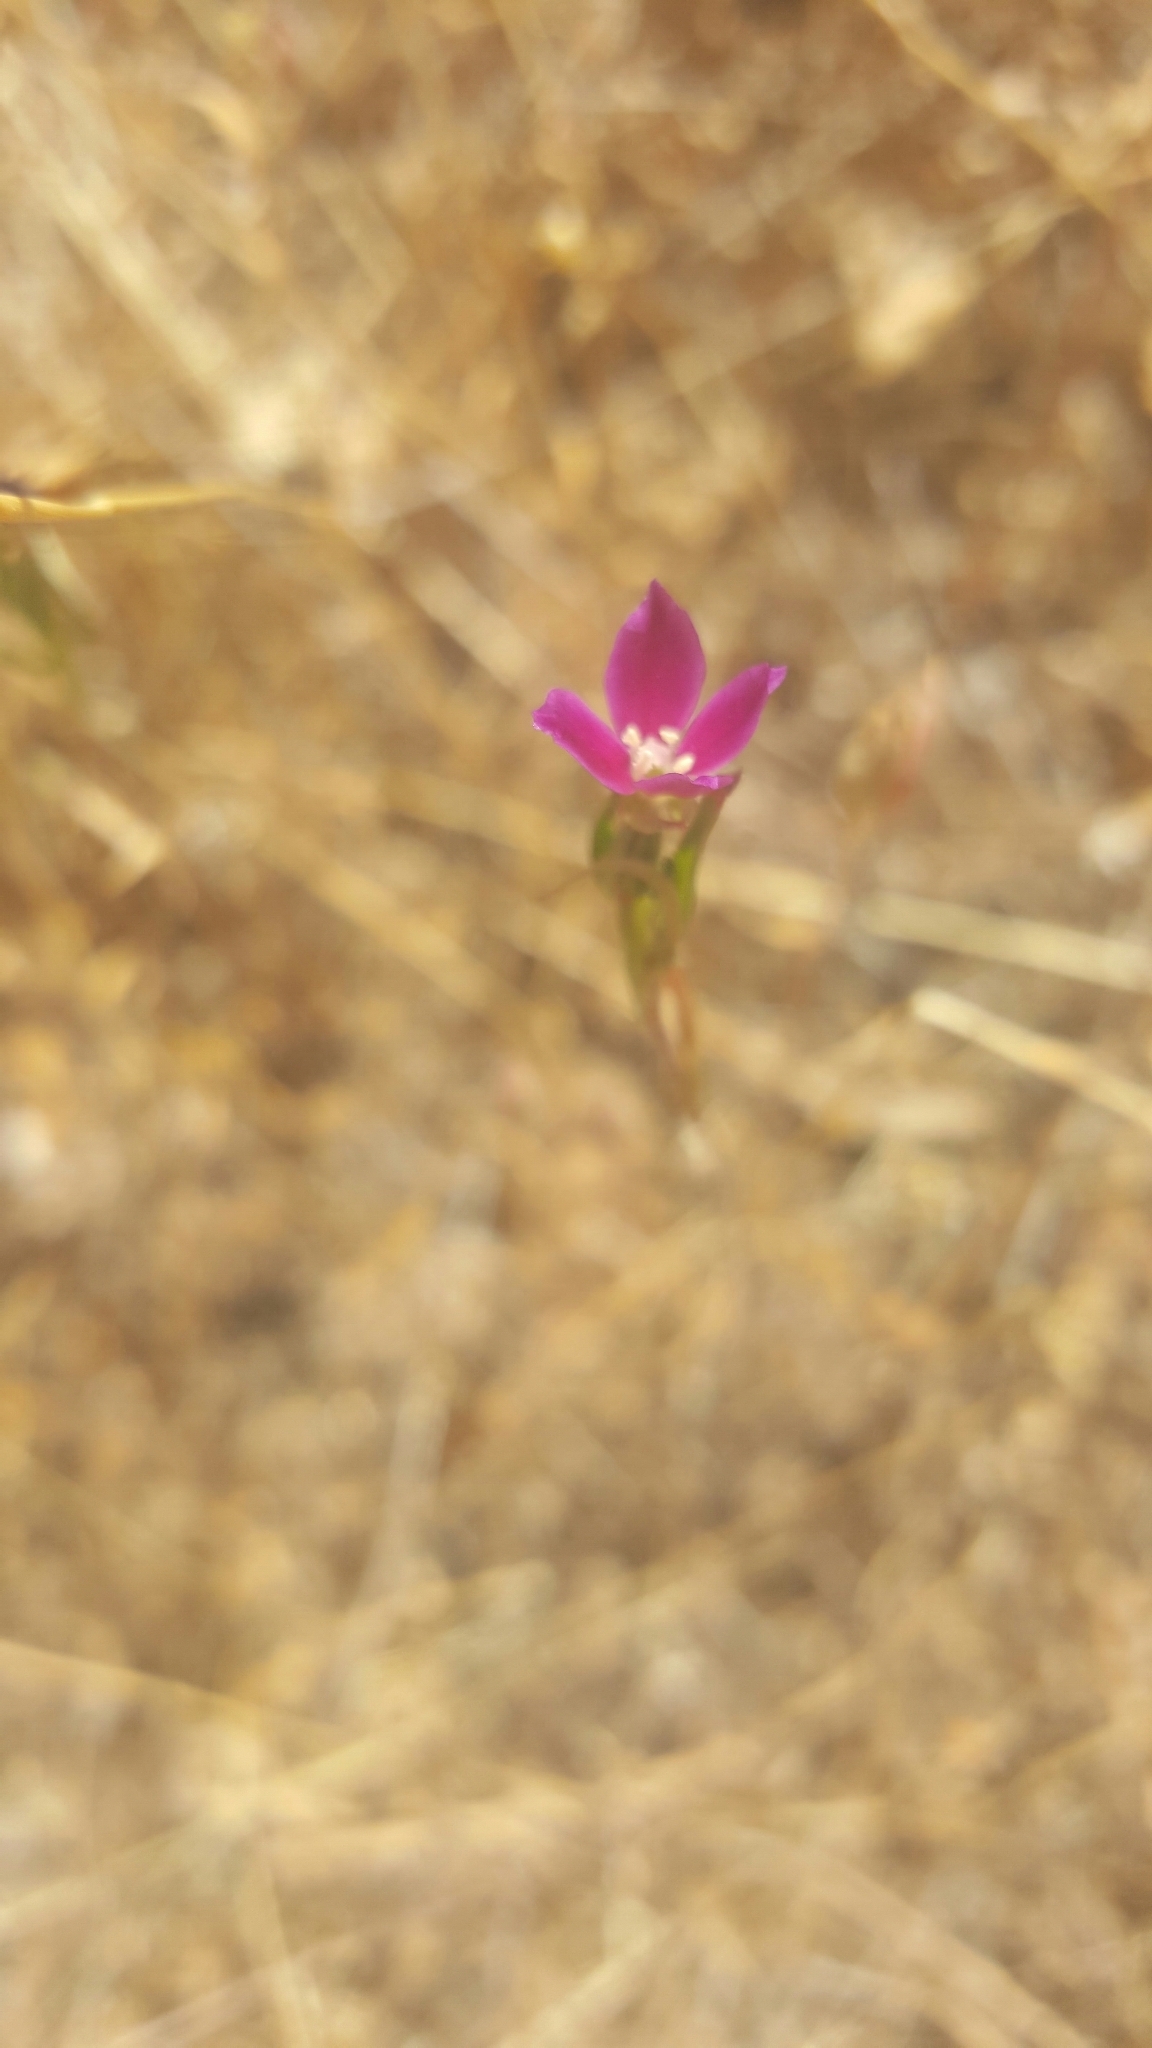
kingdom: Plantae
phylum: Tracheophyta
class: Magnoliopsida
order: Myrtales
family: Onagraceae
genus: Clarkia
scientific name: Clarkia purpurea
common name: Purple clarkia
